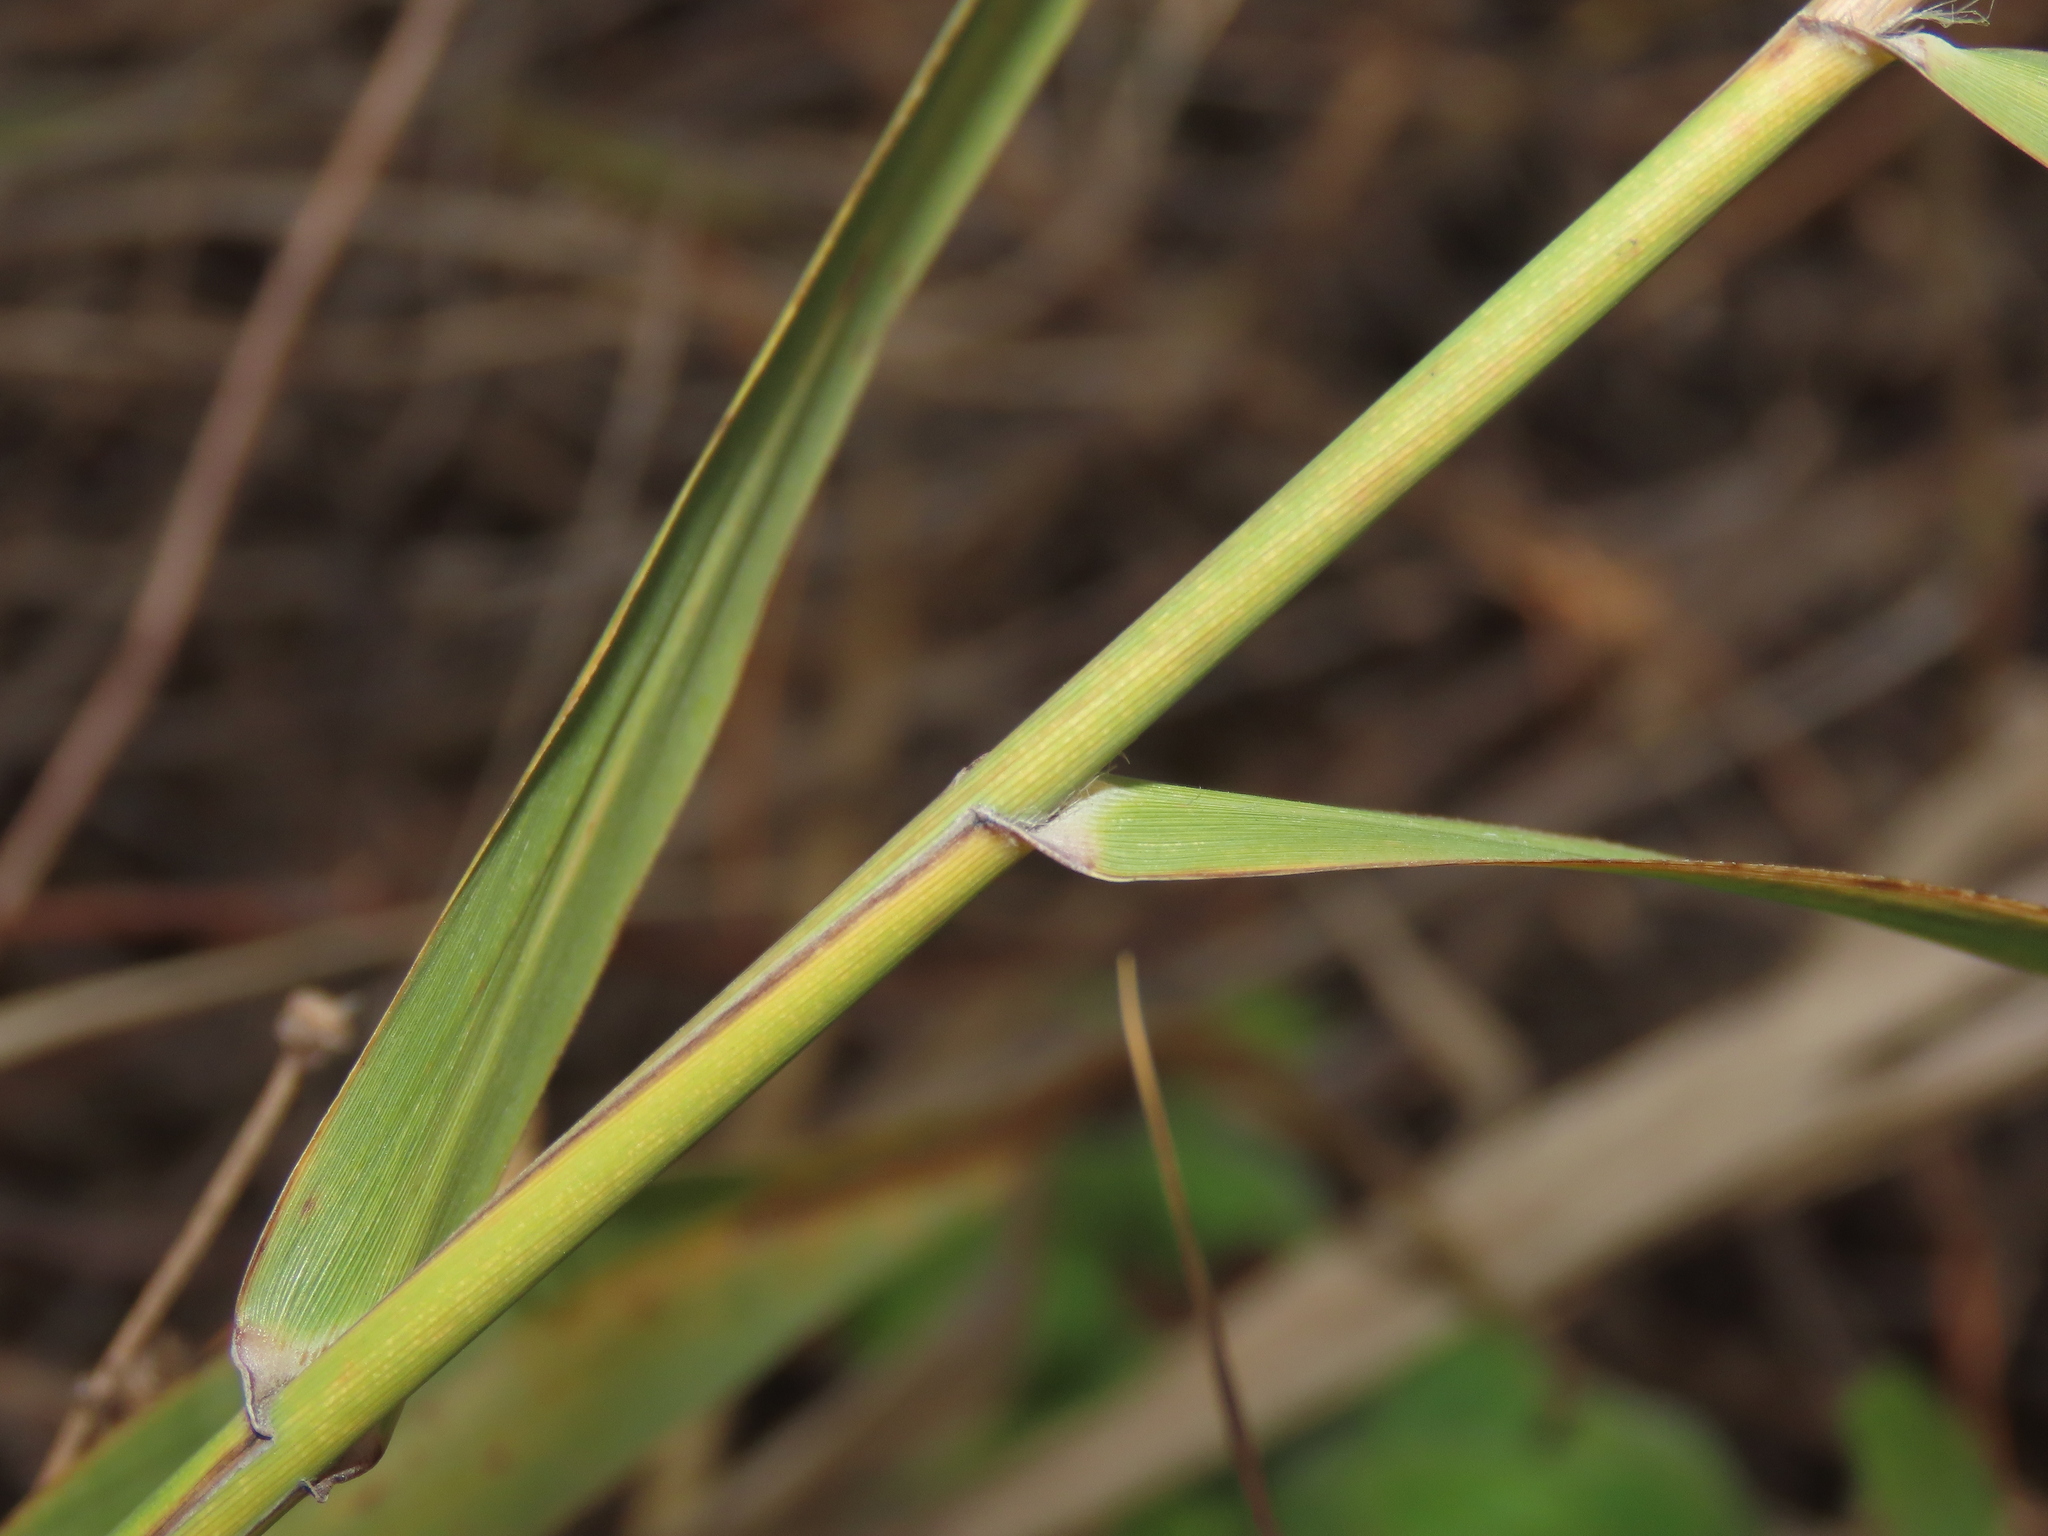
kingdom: Plantae
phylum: Tracheophyta
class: Liliopsida
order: Poales
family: Poaceae
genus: Phragmites
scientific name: Phragmites australis
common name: Common reed
